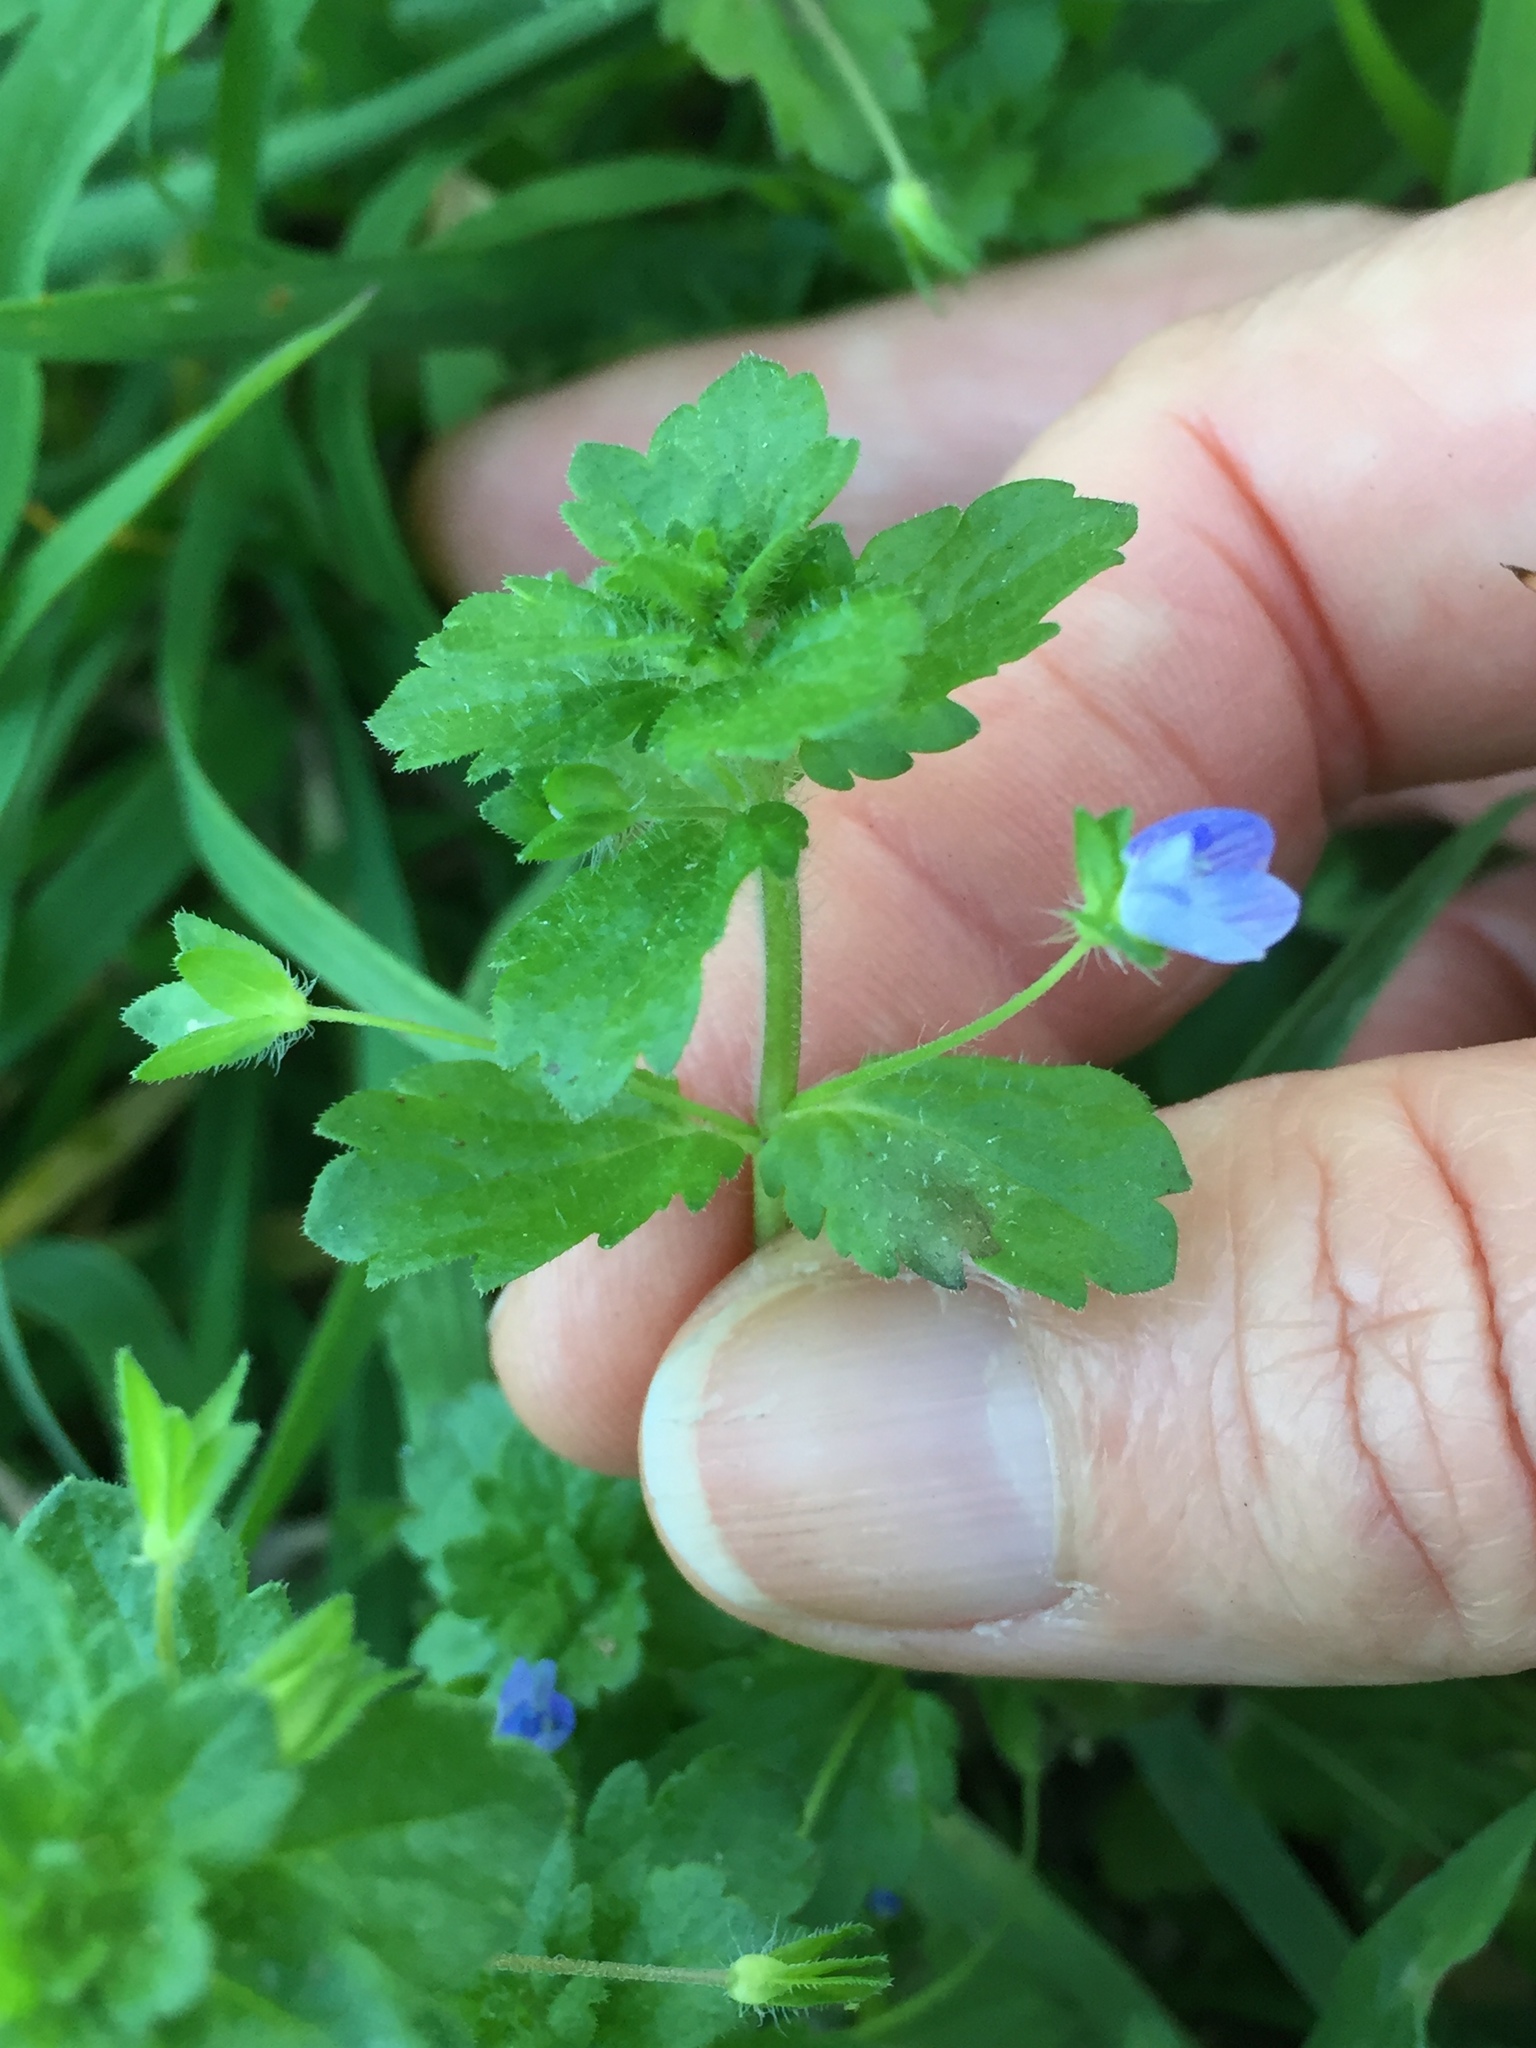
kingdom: Plantae
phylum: Tracheophyta
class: Magnoliopsida
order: Lamiales
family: Plantaginaceae
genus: Veronica
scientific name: Veronica persica
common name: Common field-speedwell
